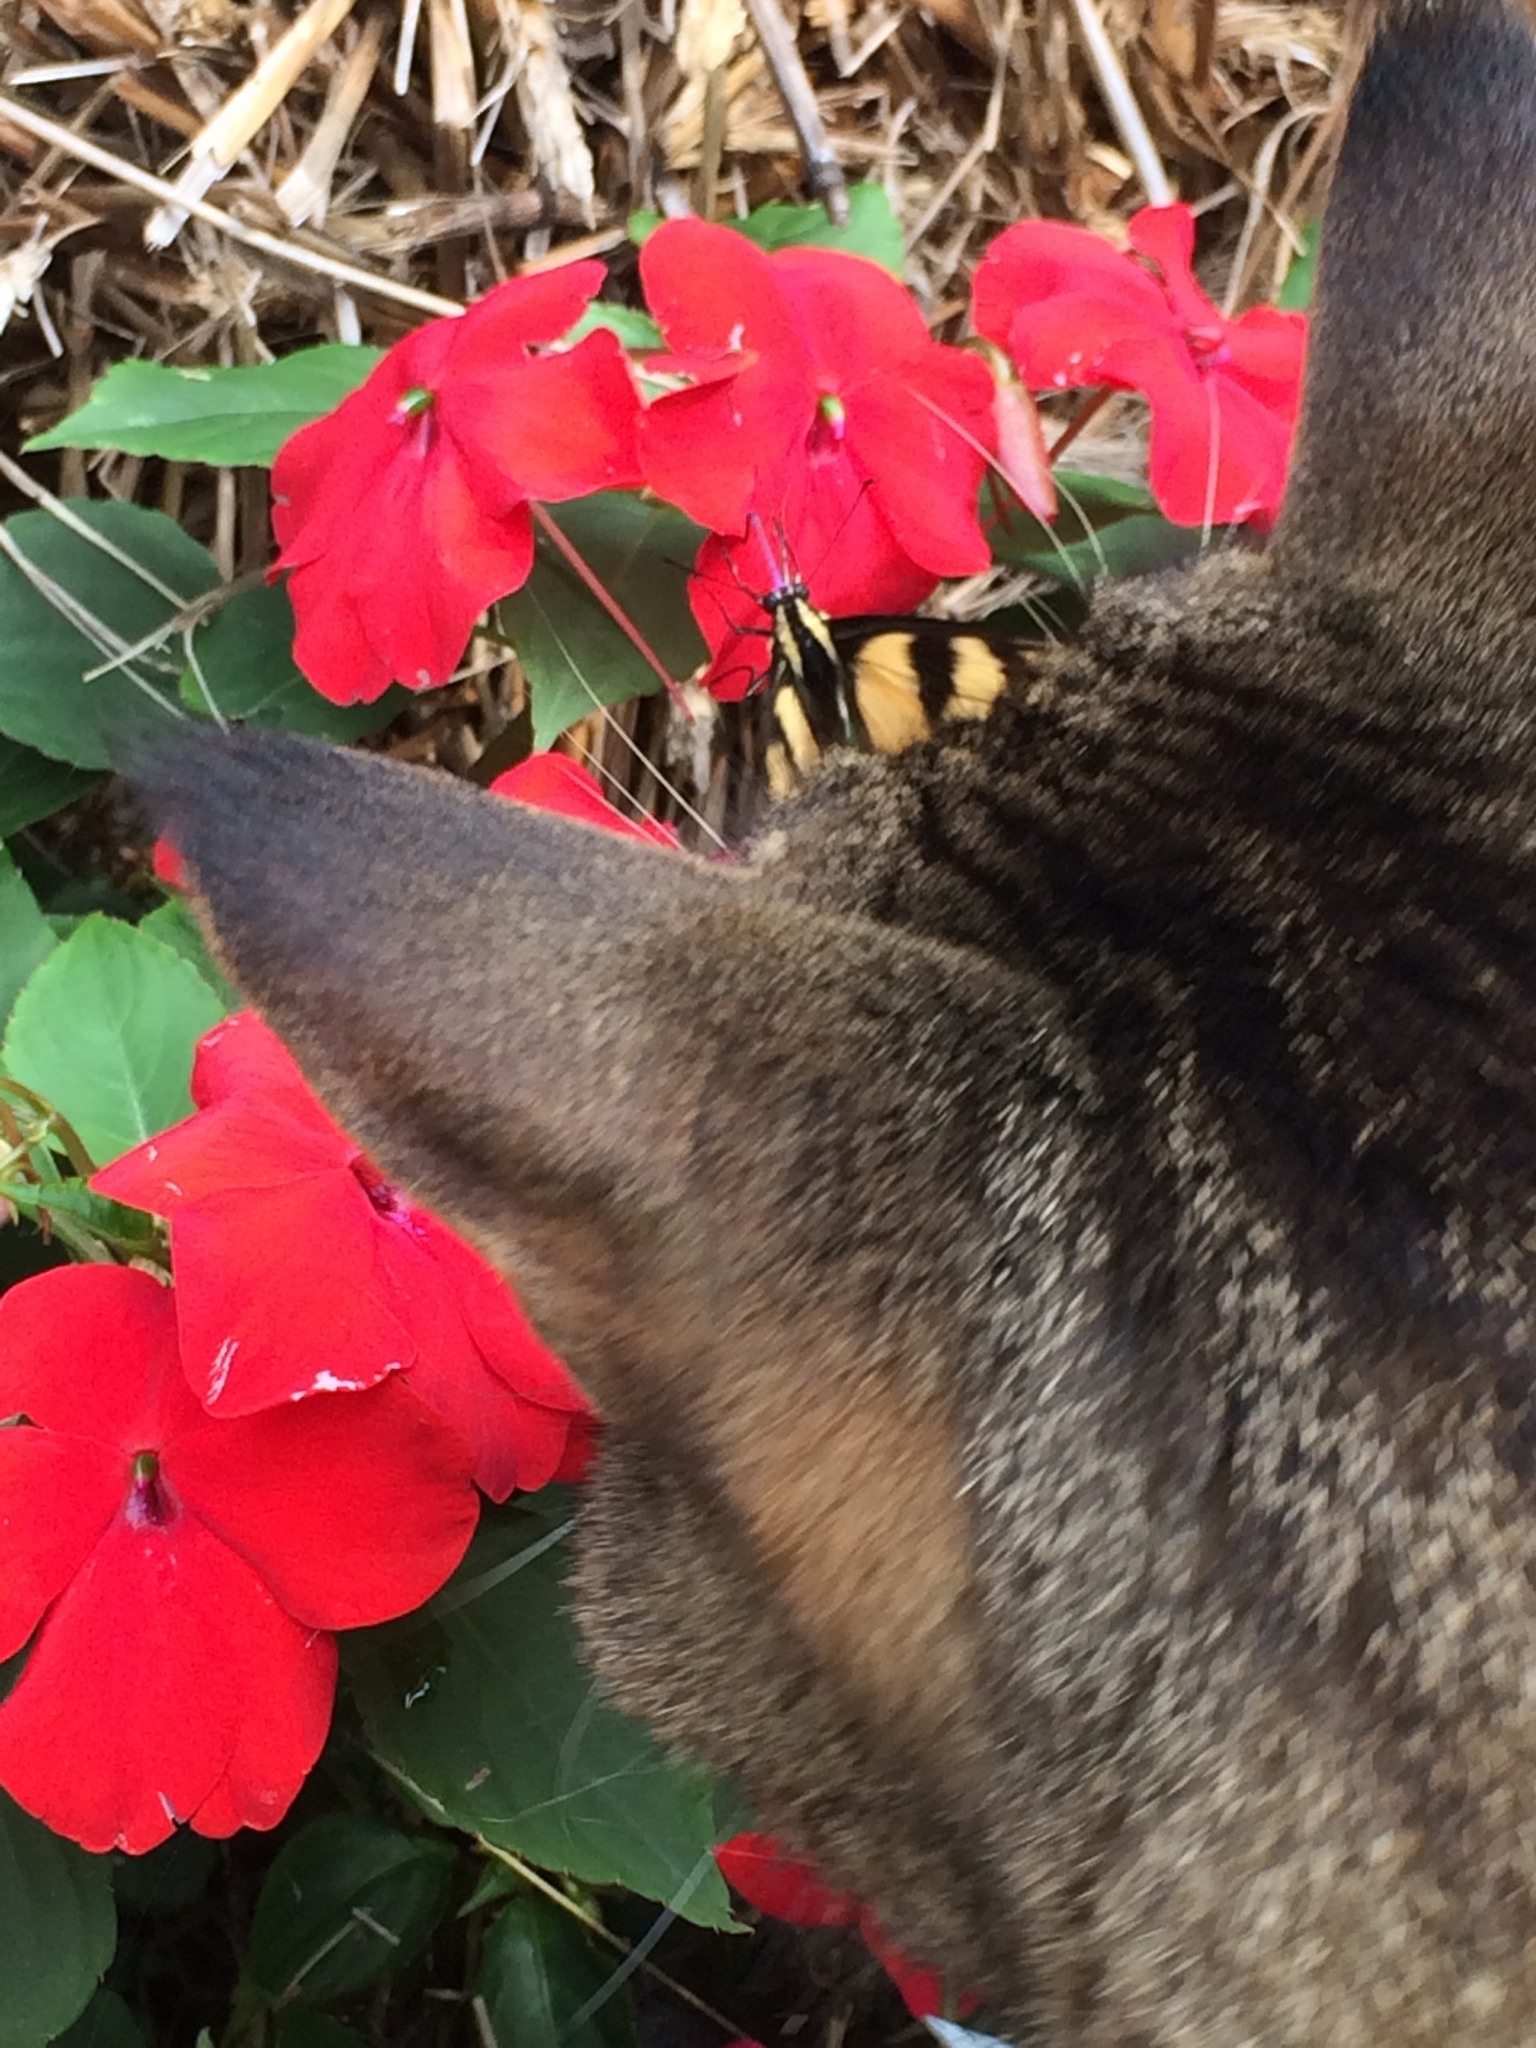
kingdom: Animalia
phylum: Arthropoda
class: Insecta
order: Lepidoptera
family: Papilionidae
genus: Papilio
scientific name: Papilio glaucus
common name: Tiger swallowtail
